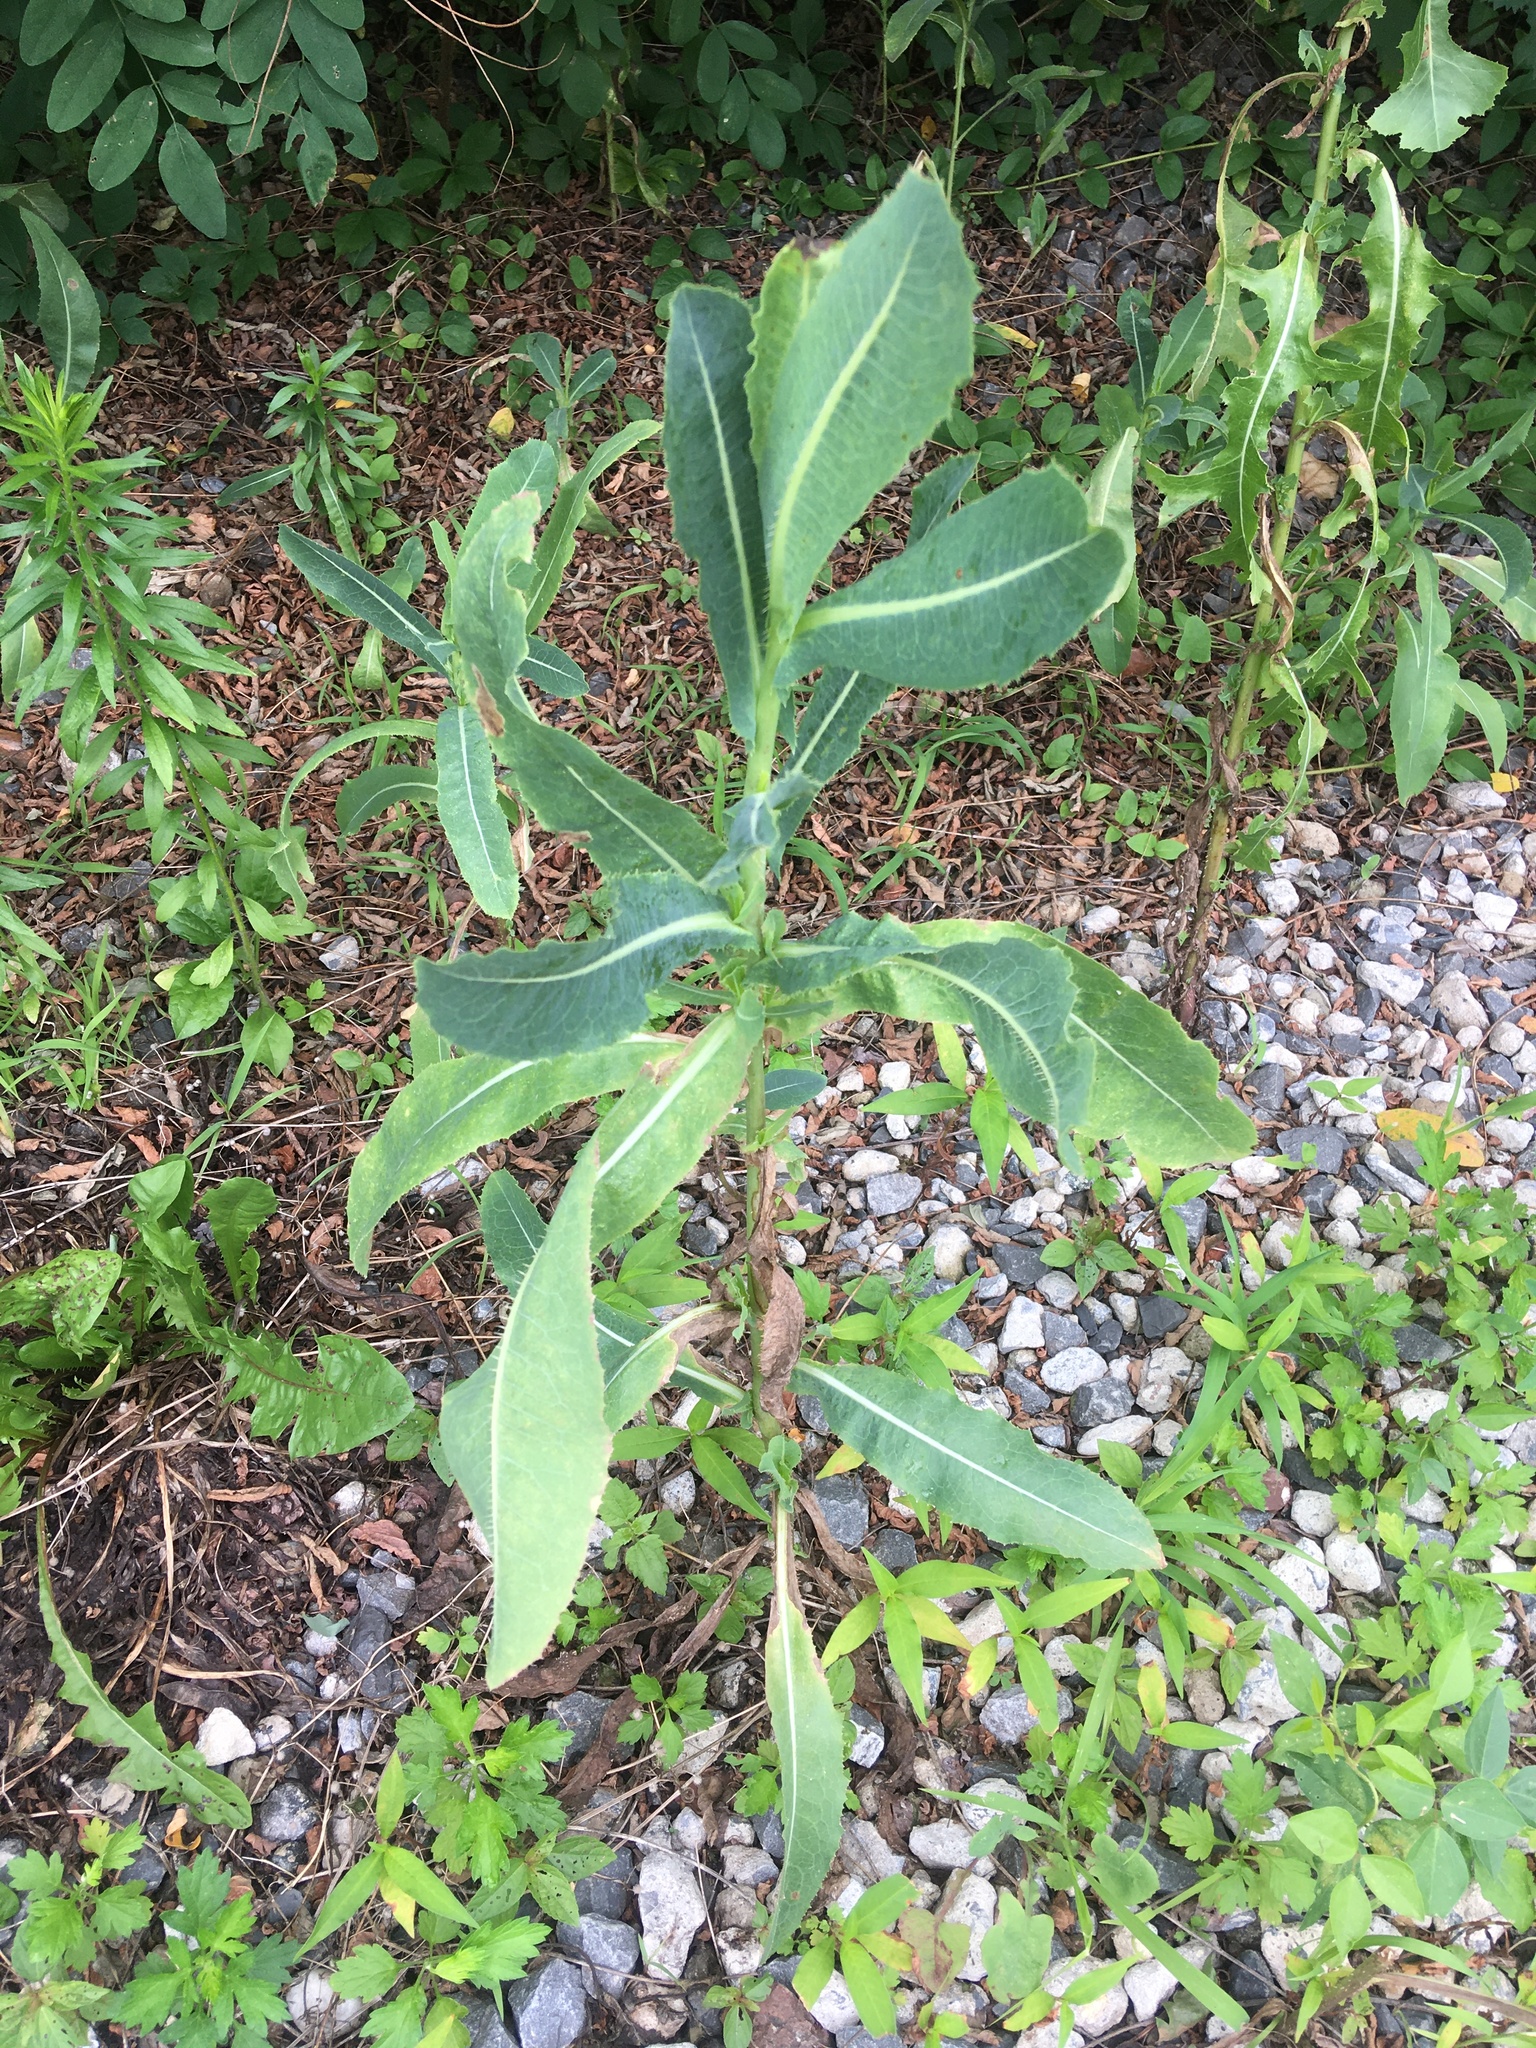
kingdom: Plantae
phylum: Tracheophyta
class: Magnoliopsida
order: Asterales
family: Asteraceae
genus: Lactuca
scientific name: Lactuca serriola
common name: Prickly lettuce
